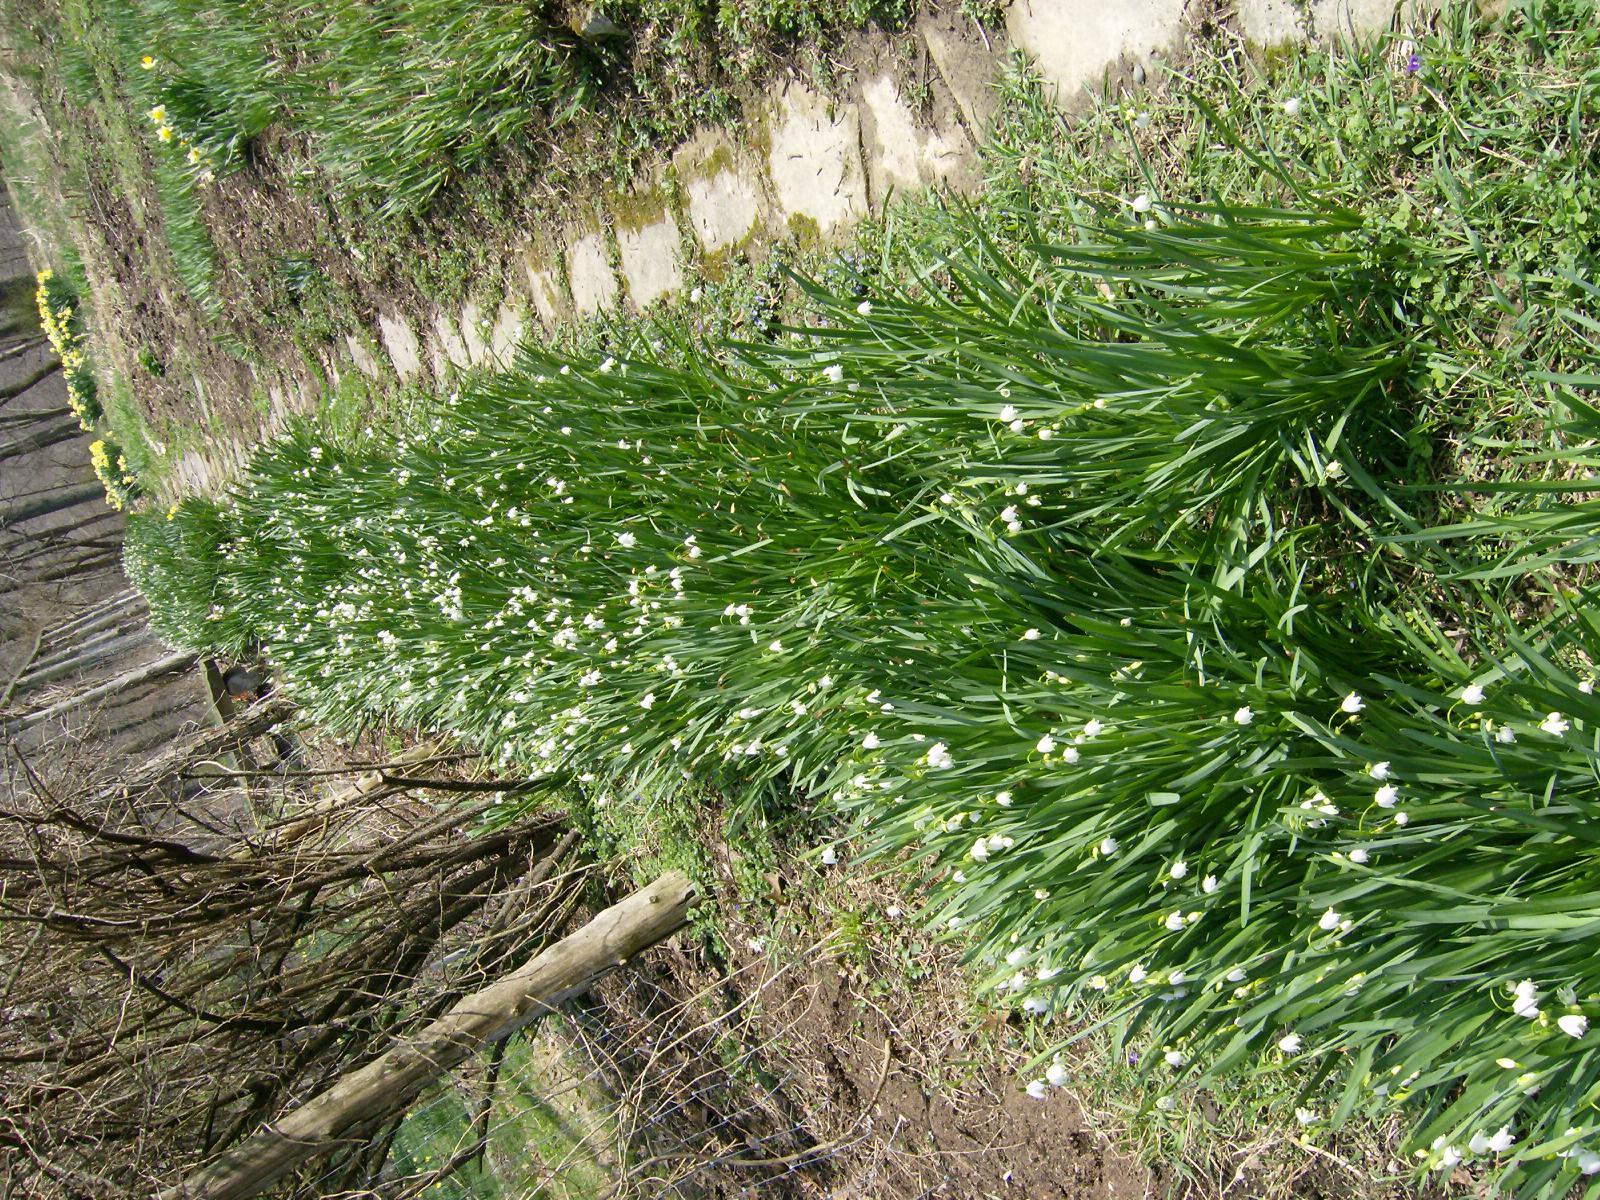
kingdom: Plantae
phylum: Tracheophyta
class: Liliopsida
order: Asparagales
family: Amaryllidaceae
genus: Leucojum
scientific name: Leucojum aestivum
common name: Summer snowflake
